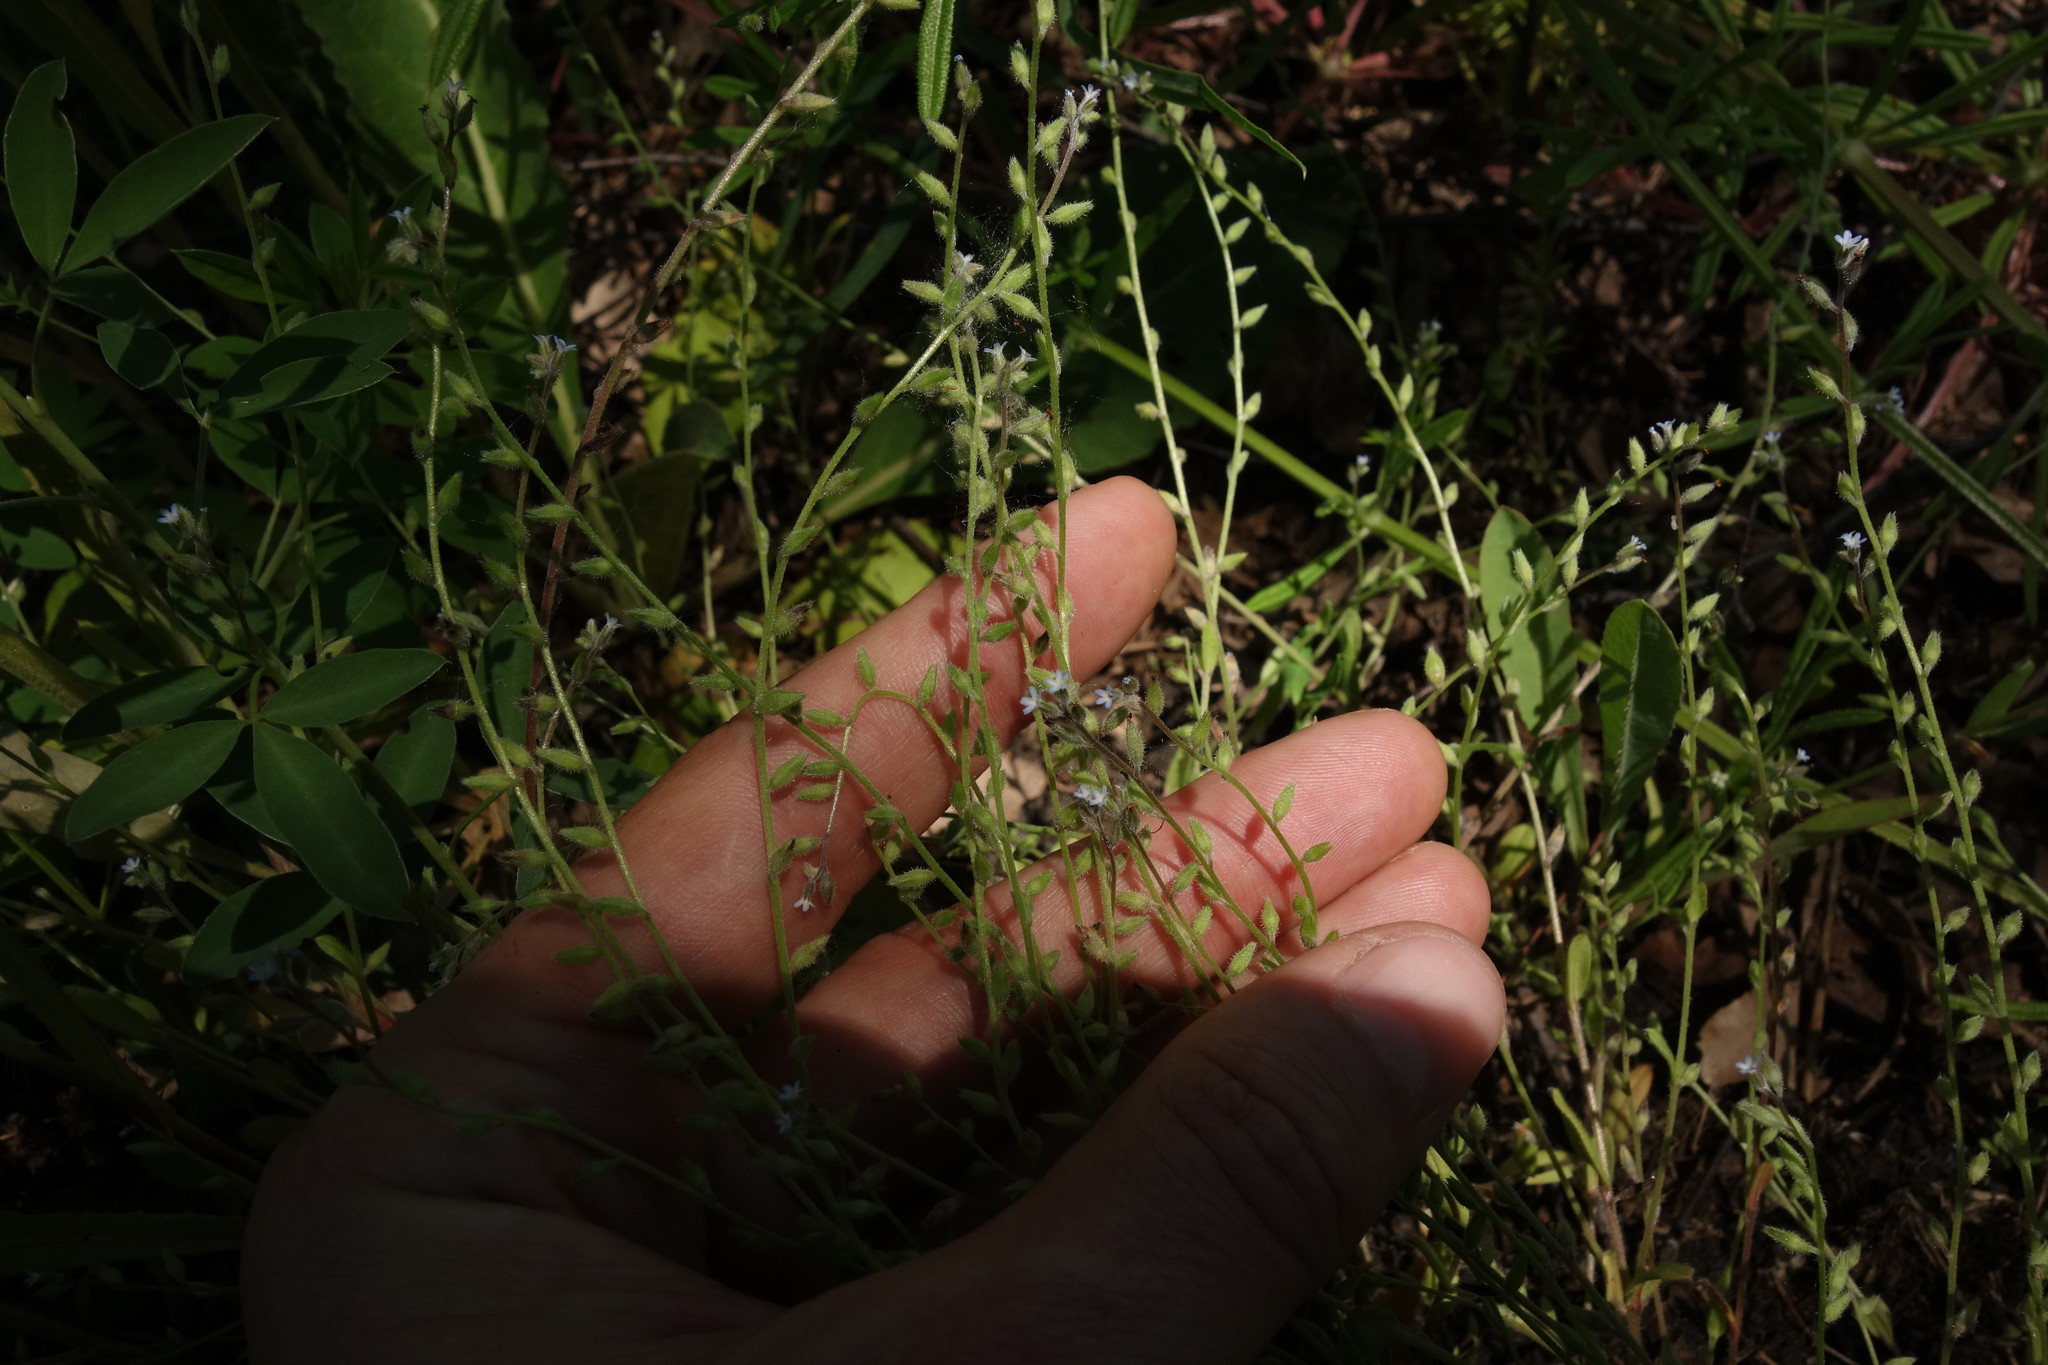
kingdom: Plantae
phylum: Tracheophyta
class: Magnoliopsida
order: Boraginales
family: Boraginaceae
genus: Myosotis
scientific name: Myosotis stricta
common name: Strict forget-me-not
